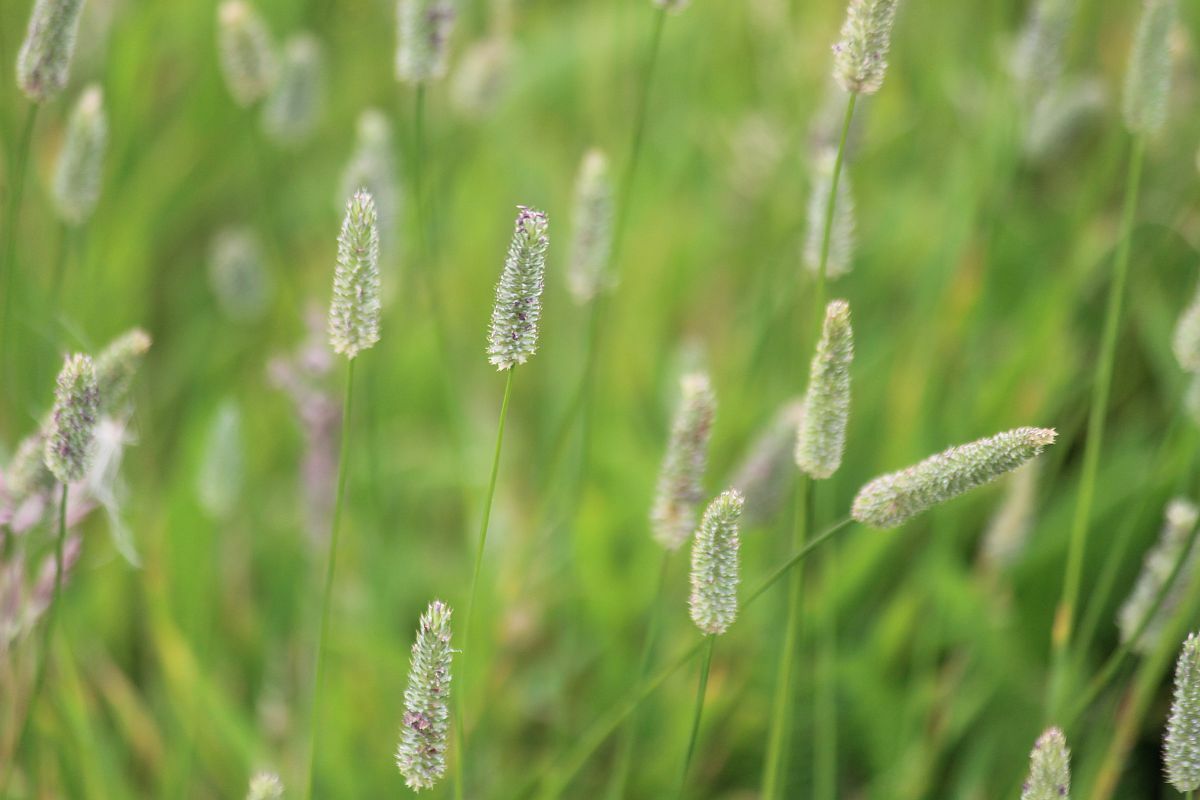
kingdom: Plantae
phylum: Tracheophyta
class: Liliopsida
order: Poales
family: Poaceae
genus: Phleum
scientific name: Phleum pratense
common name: Timothy grass
